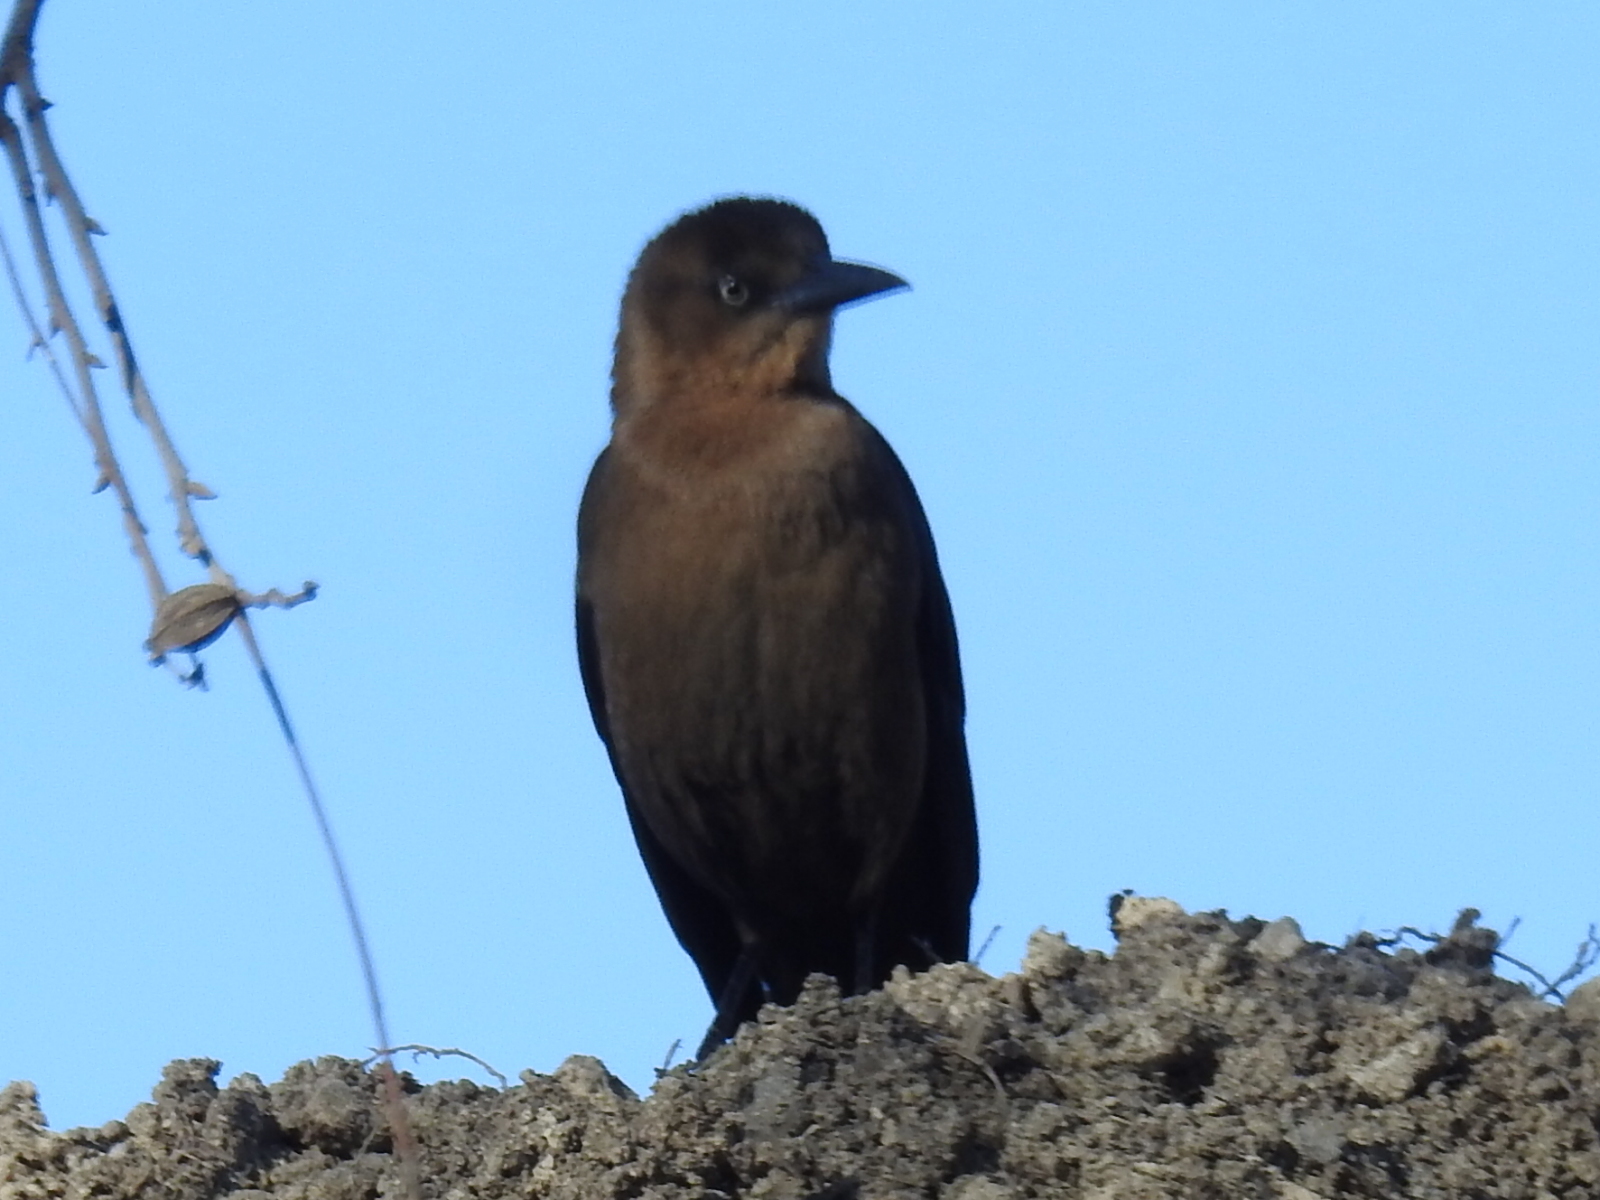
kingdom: Animalia
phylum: Chordata
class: Aves
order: Passeriformes
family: Icteridae
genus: Quiscalus
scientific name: Quiscalus mexicanus
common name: Great-tailed grackle
